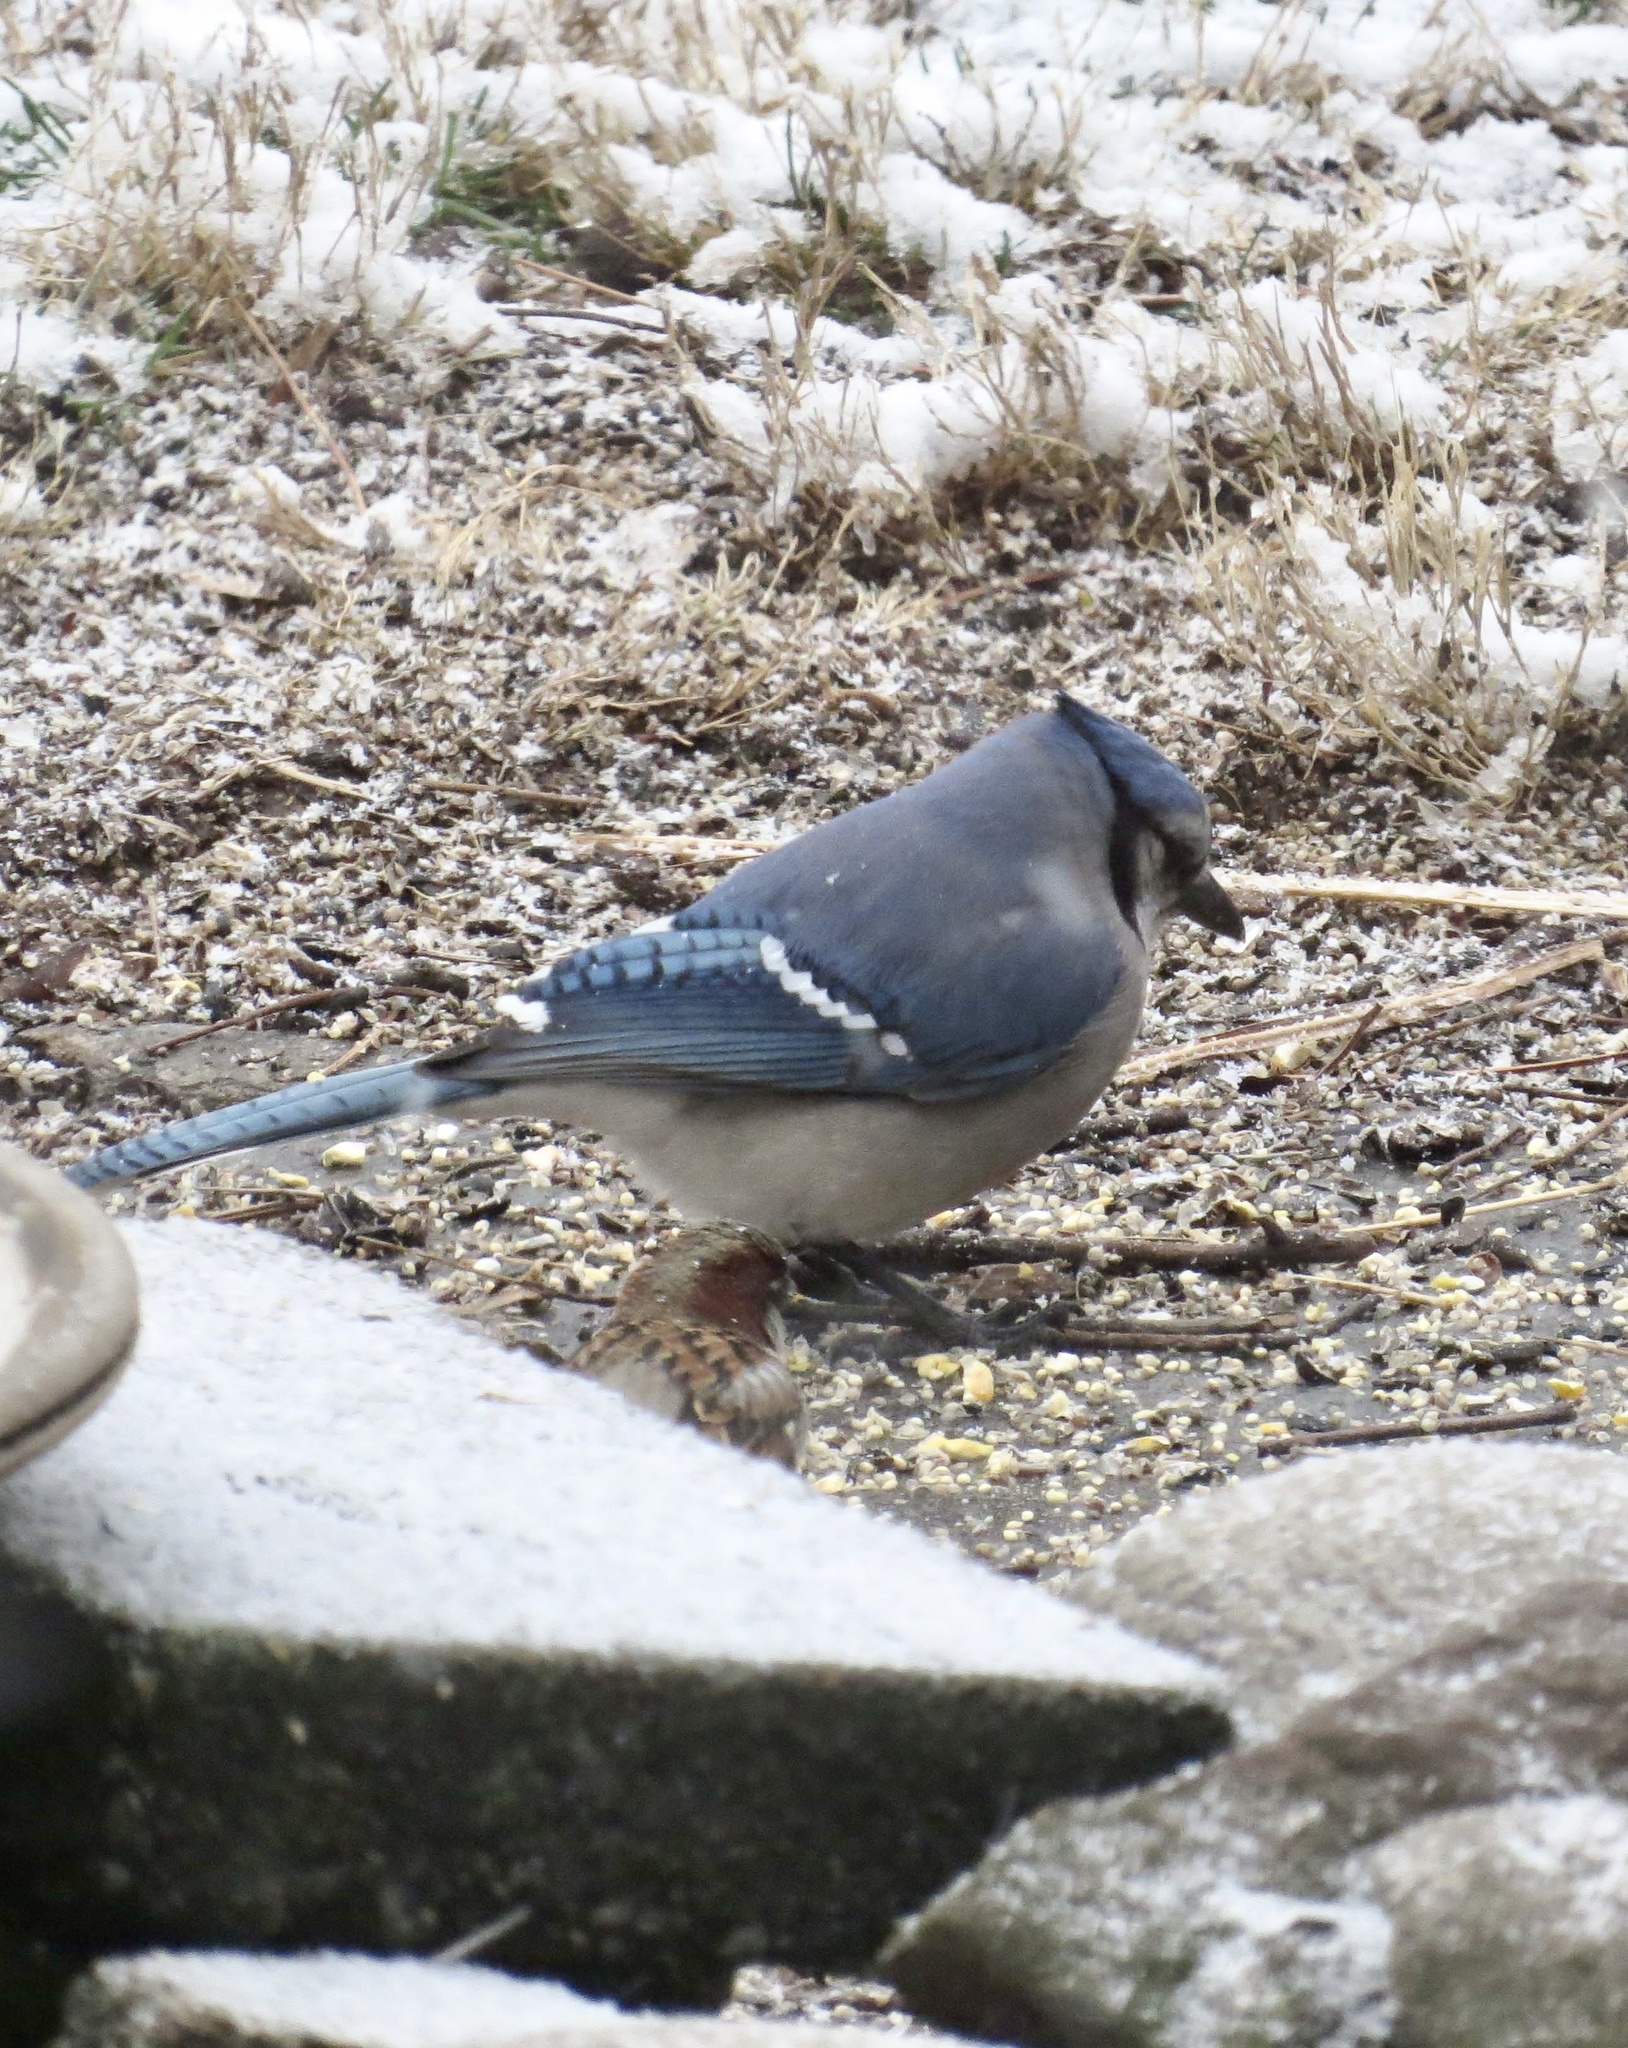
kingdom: Animalia
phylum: Chordata
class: Aves
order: Passeriformes
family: Corvidae
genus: Cyanocitta
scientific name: Cyanocitta cristata
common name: Blue jay
